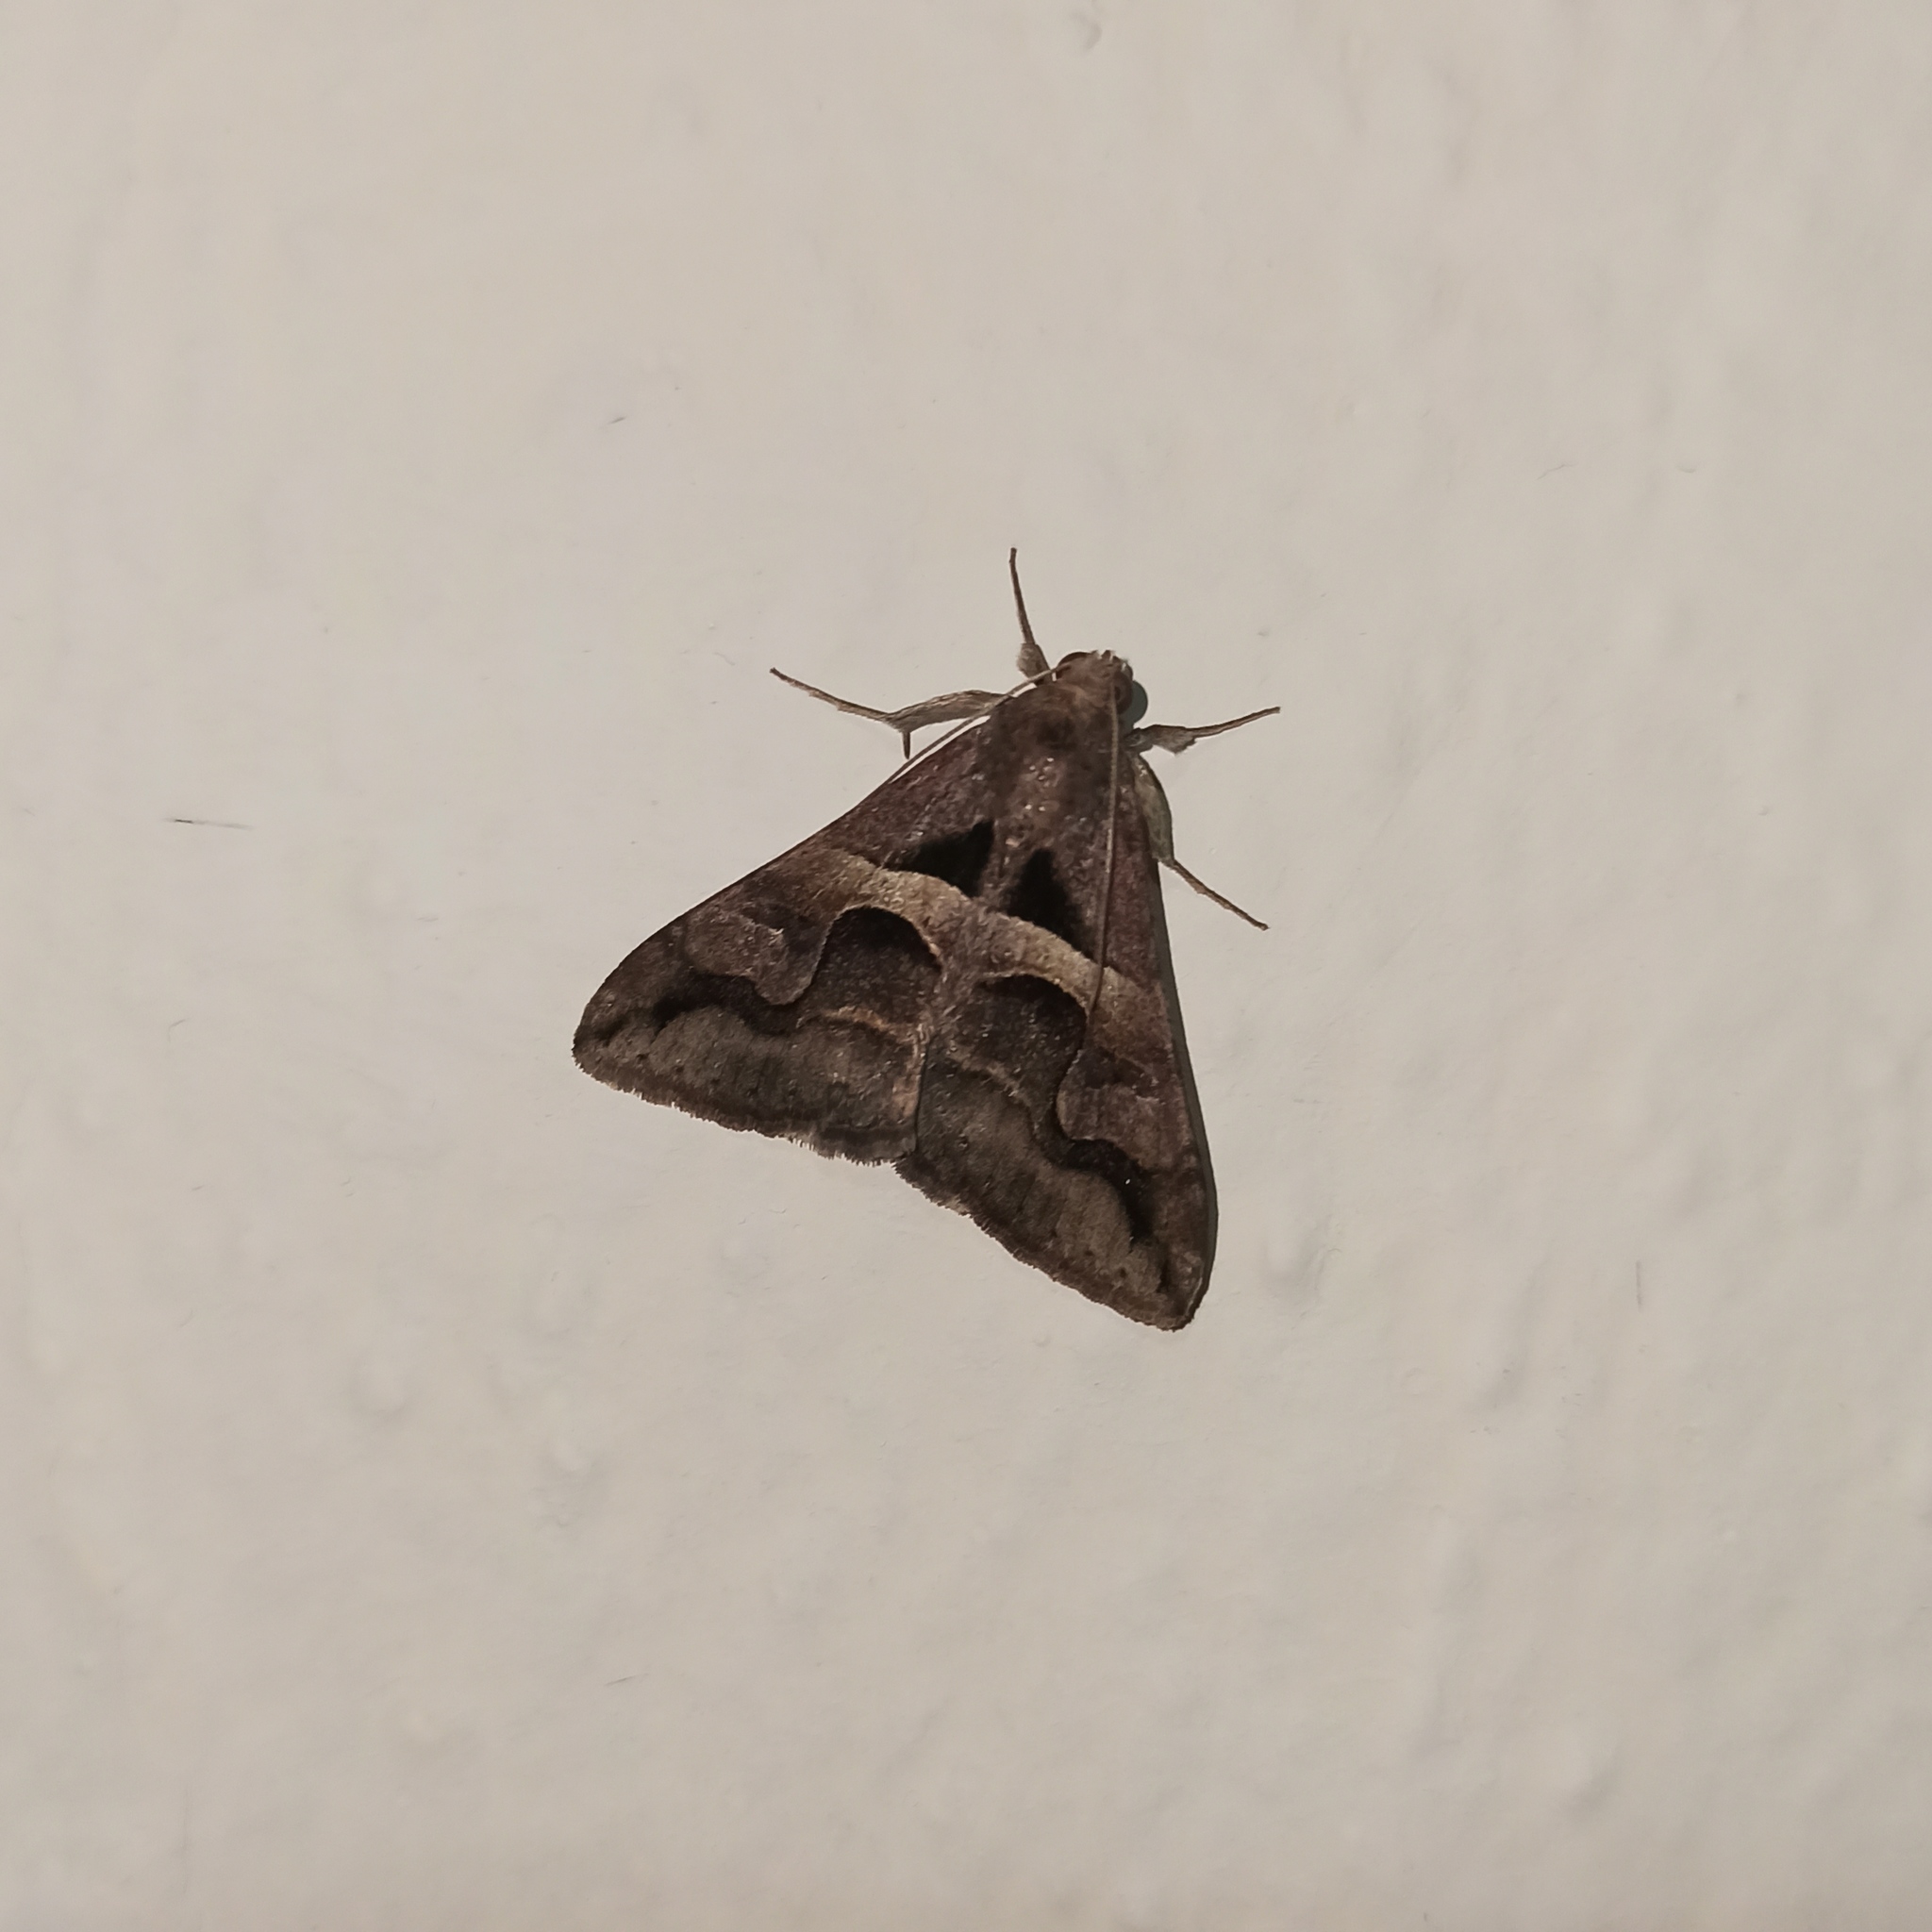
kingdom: Animalia
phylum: Arthropoda
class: Insecta
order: Lepidoptera
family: Erebidae
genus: Melipotis
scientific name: Melipotis cellaris
